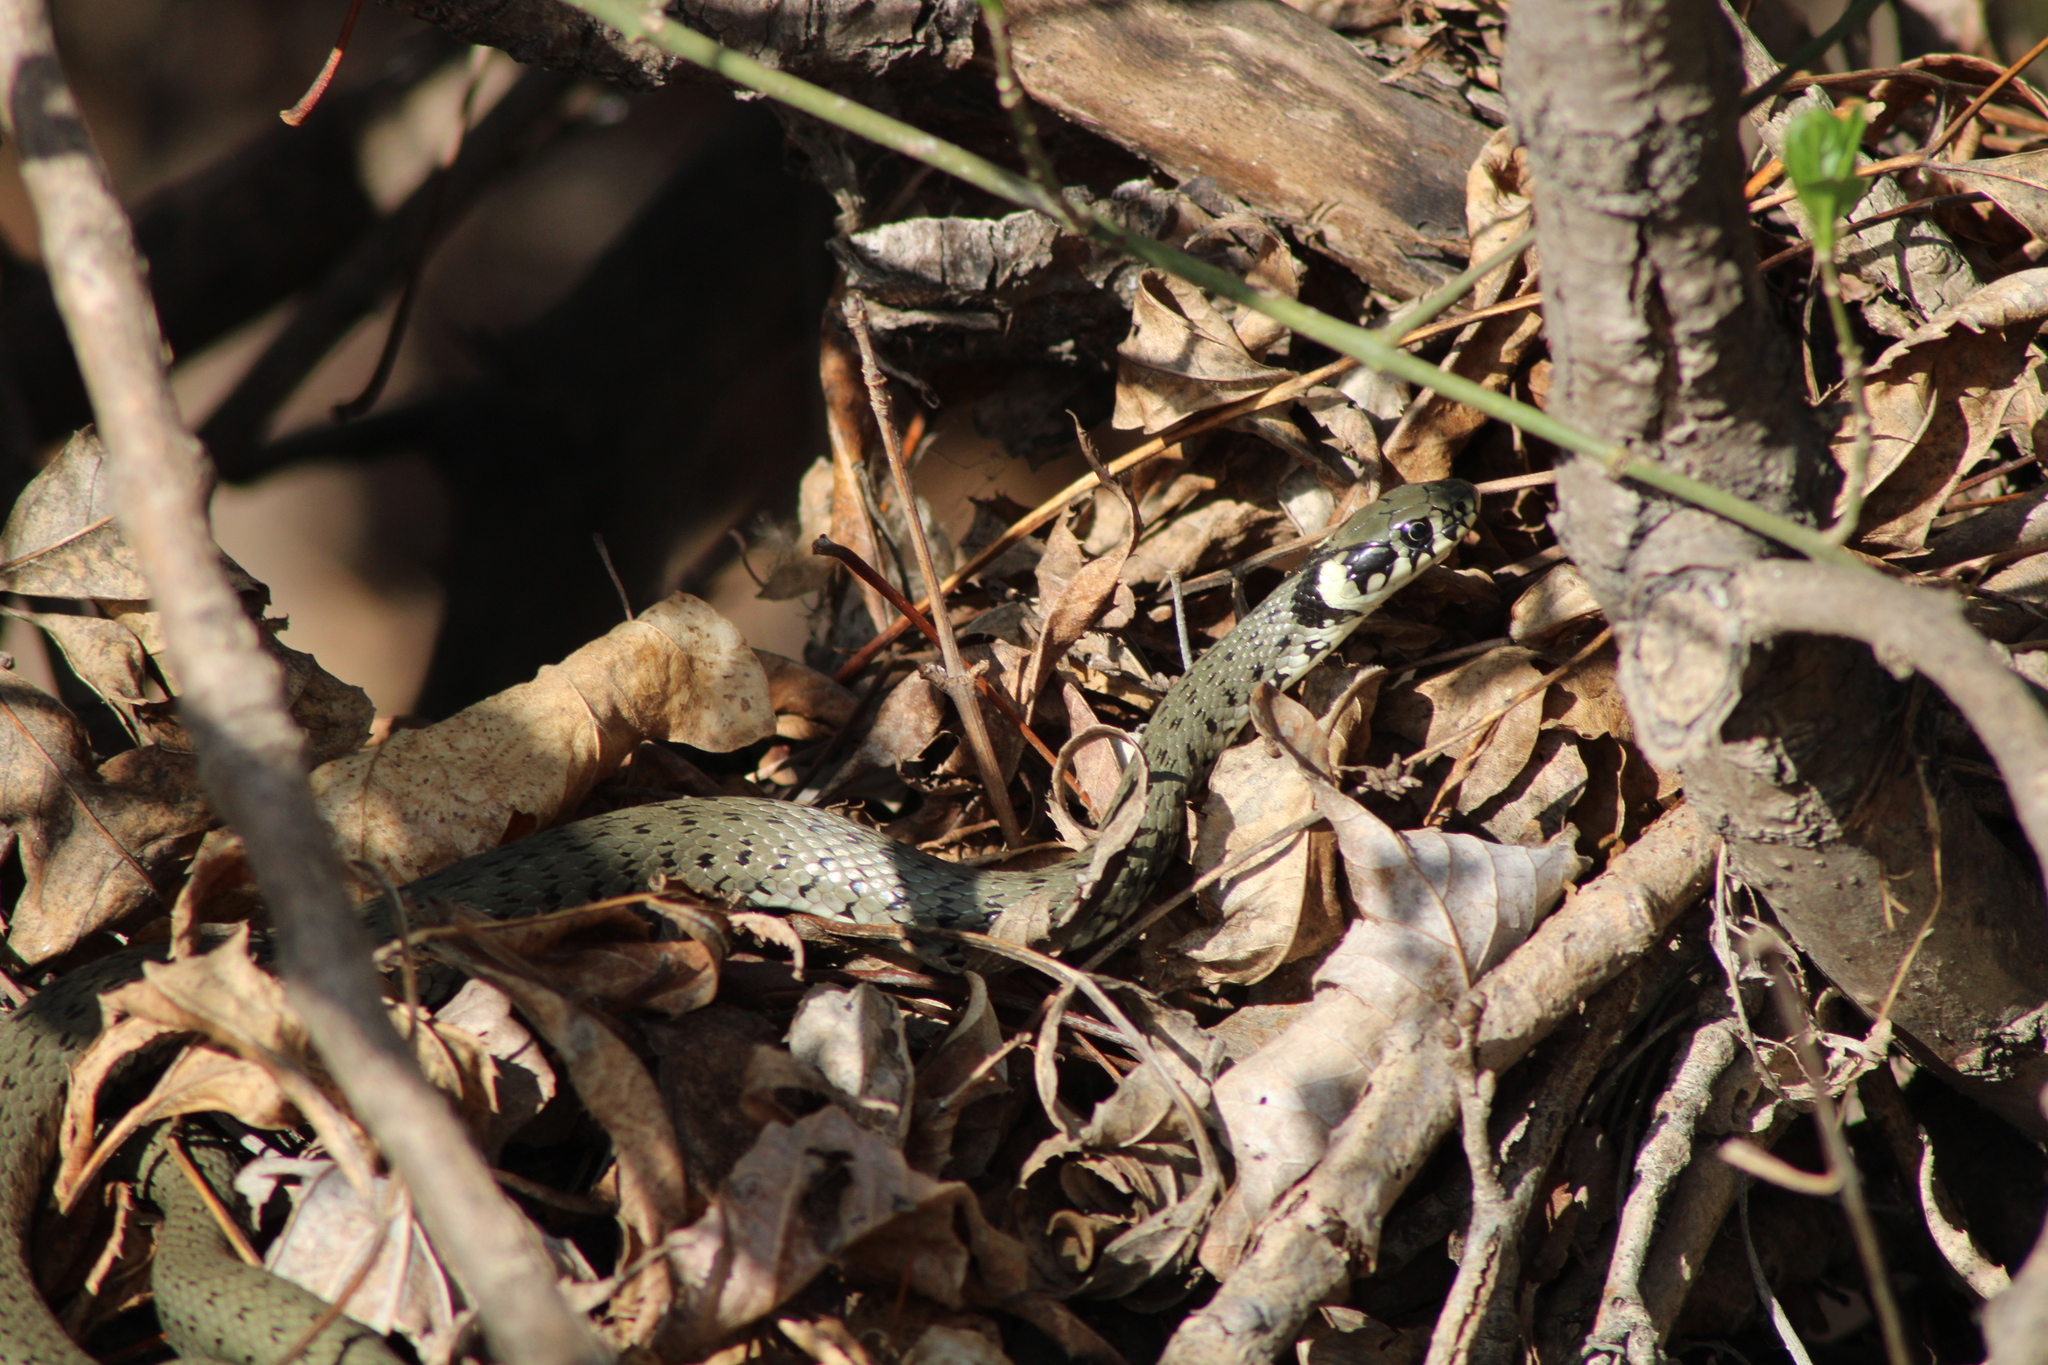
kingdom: Animalia
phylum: Chordata
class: Squamata
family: Colubridae
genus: Natrix
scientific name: Natrix natrix
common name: Grass snake
